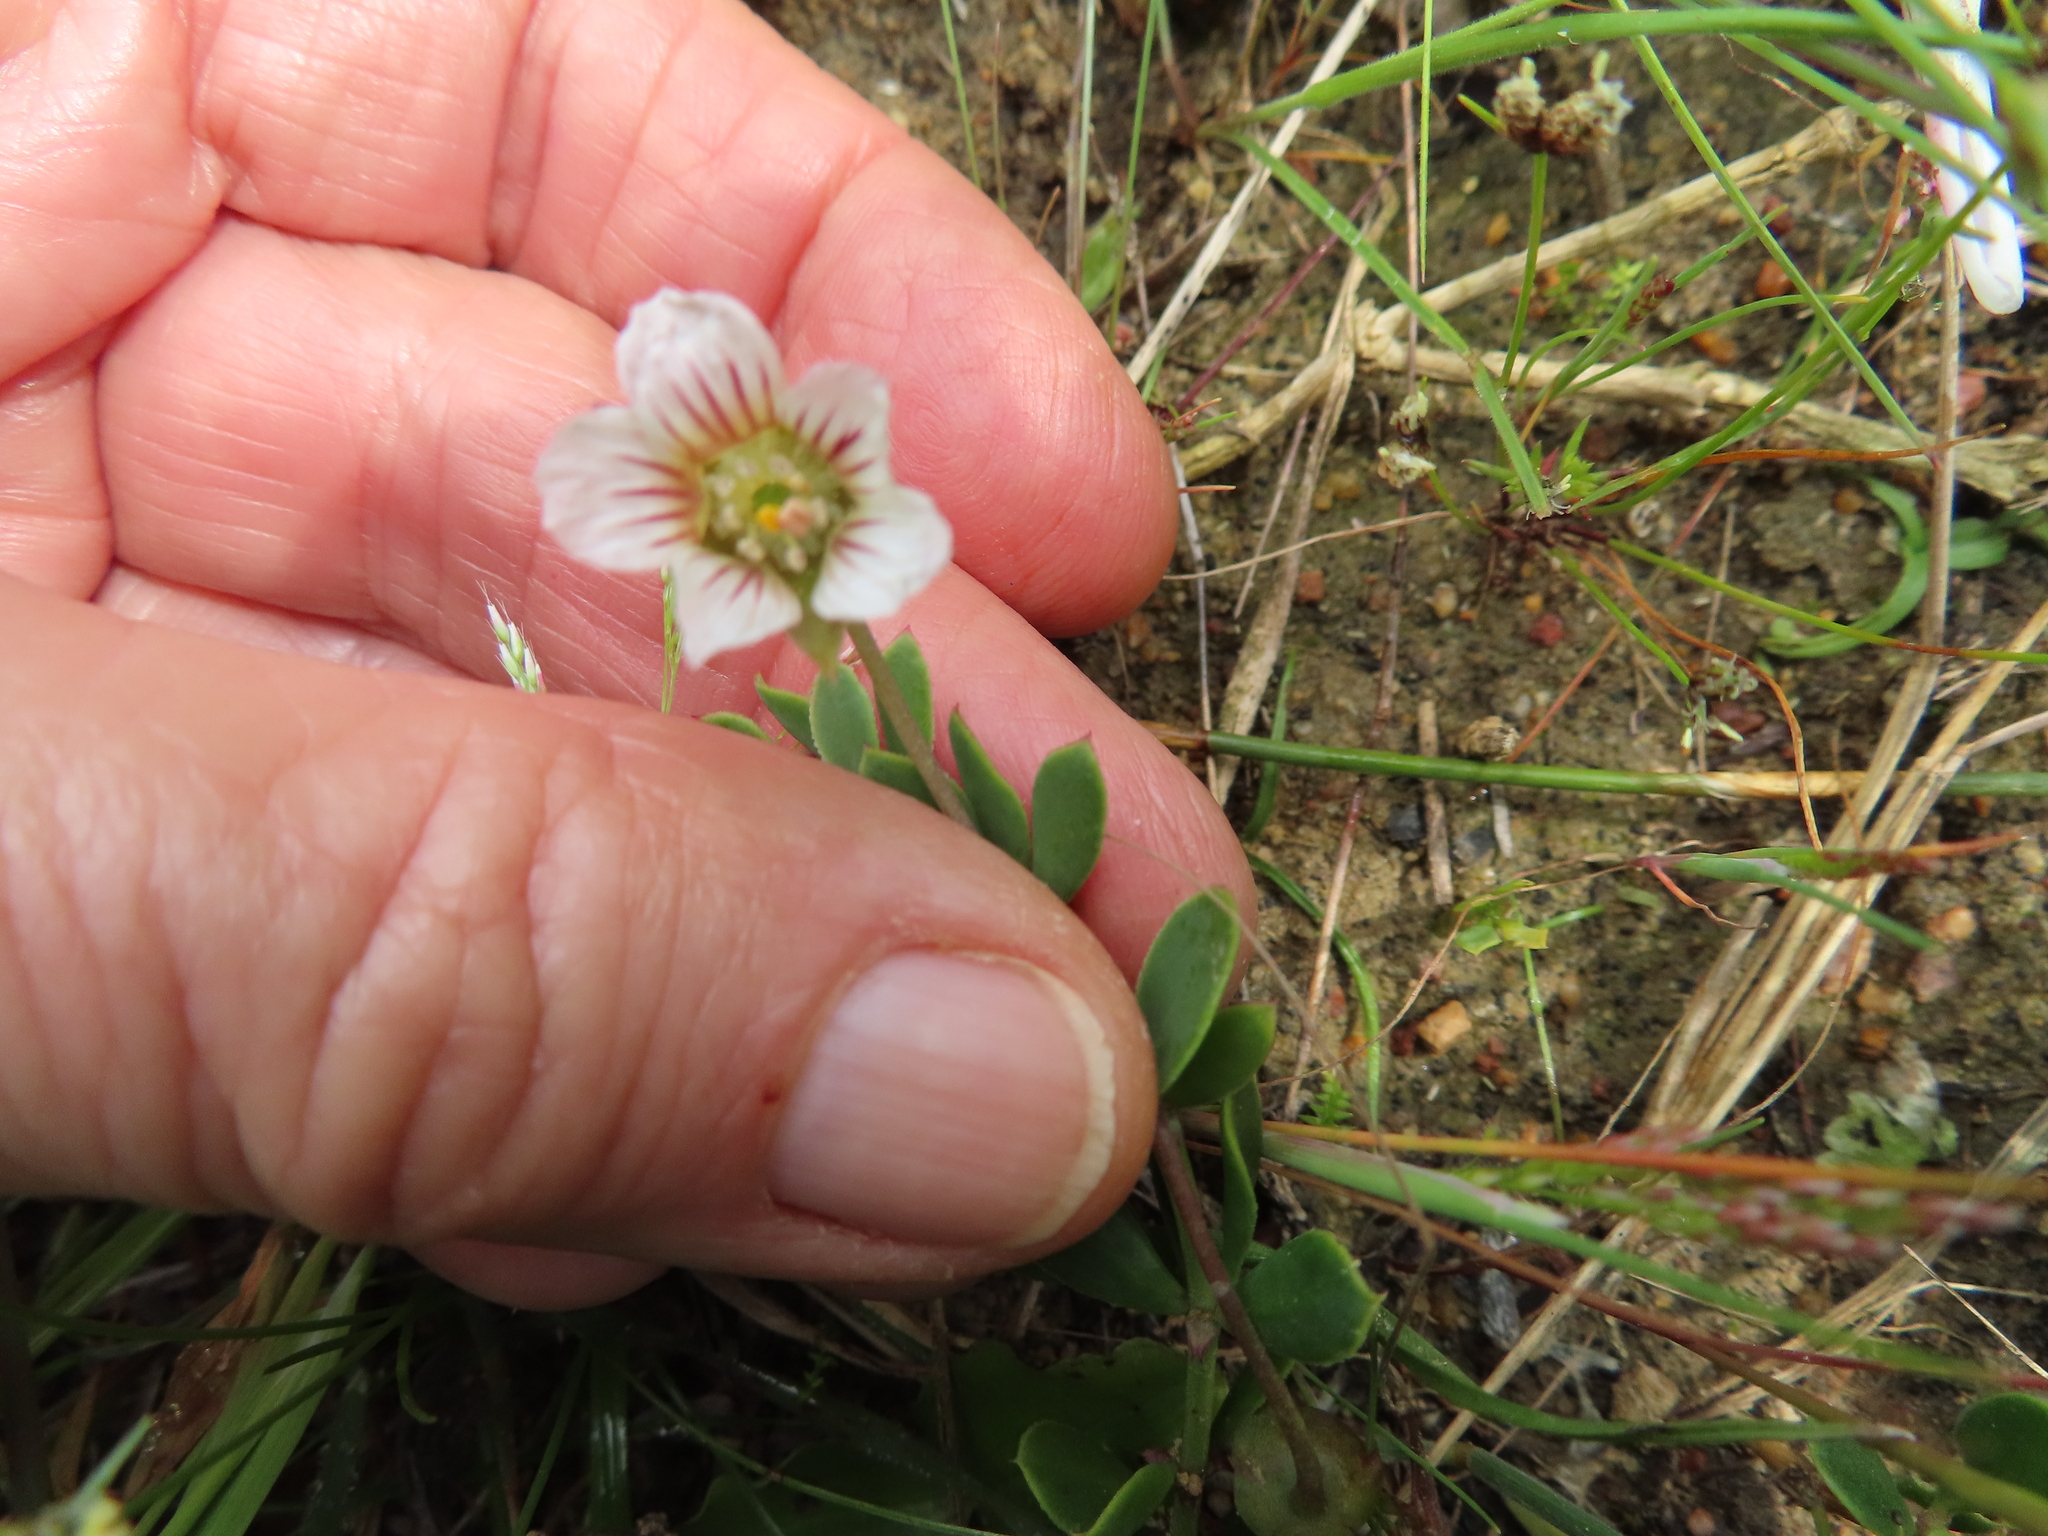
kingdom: Plantae
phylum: Tracheophyta
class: Magnoliopsida
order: Zygophyllales
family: Zygophyllaceae
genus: Roepera
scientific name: Roepera sessilifolia
